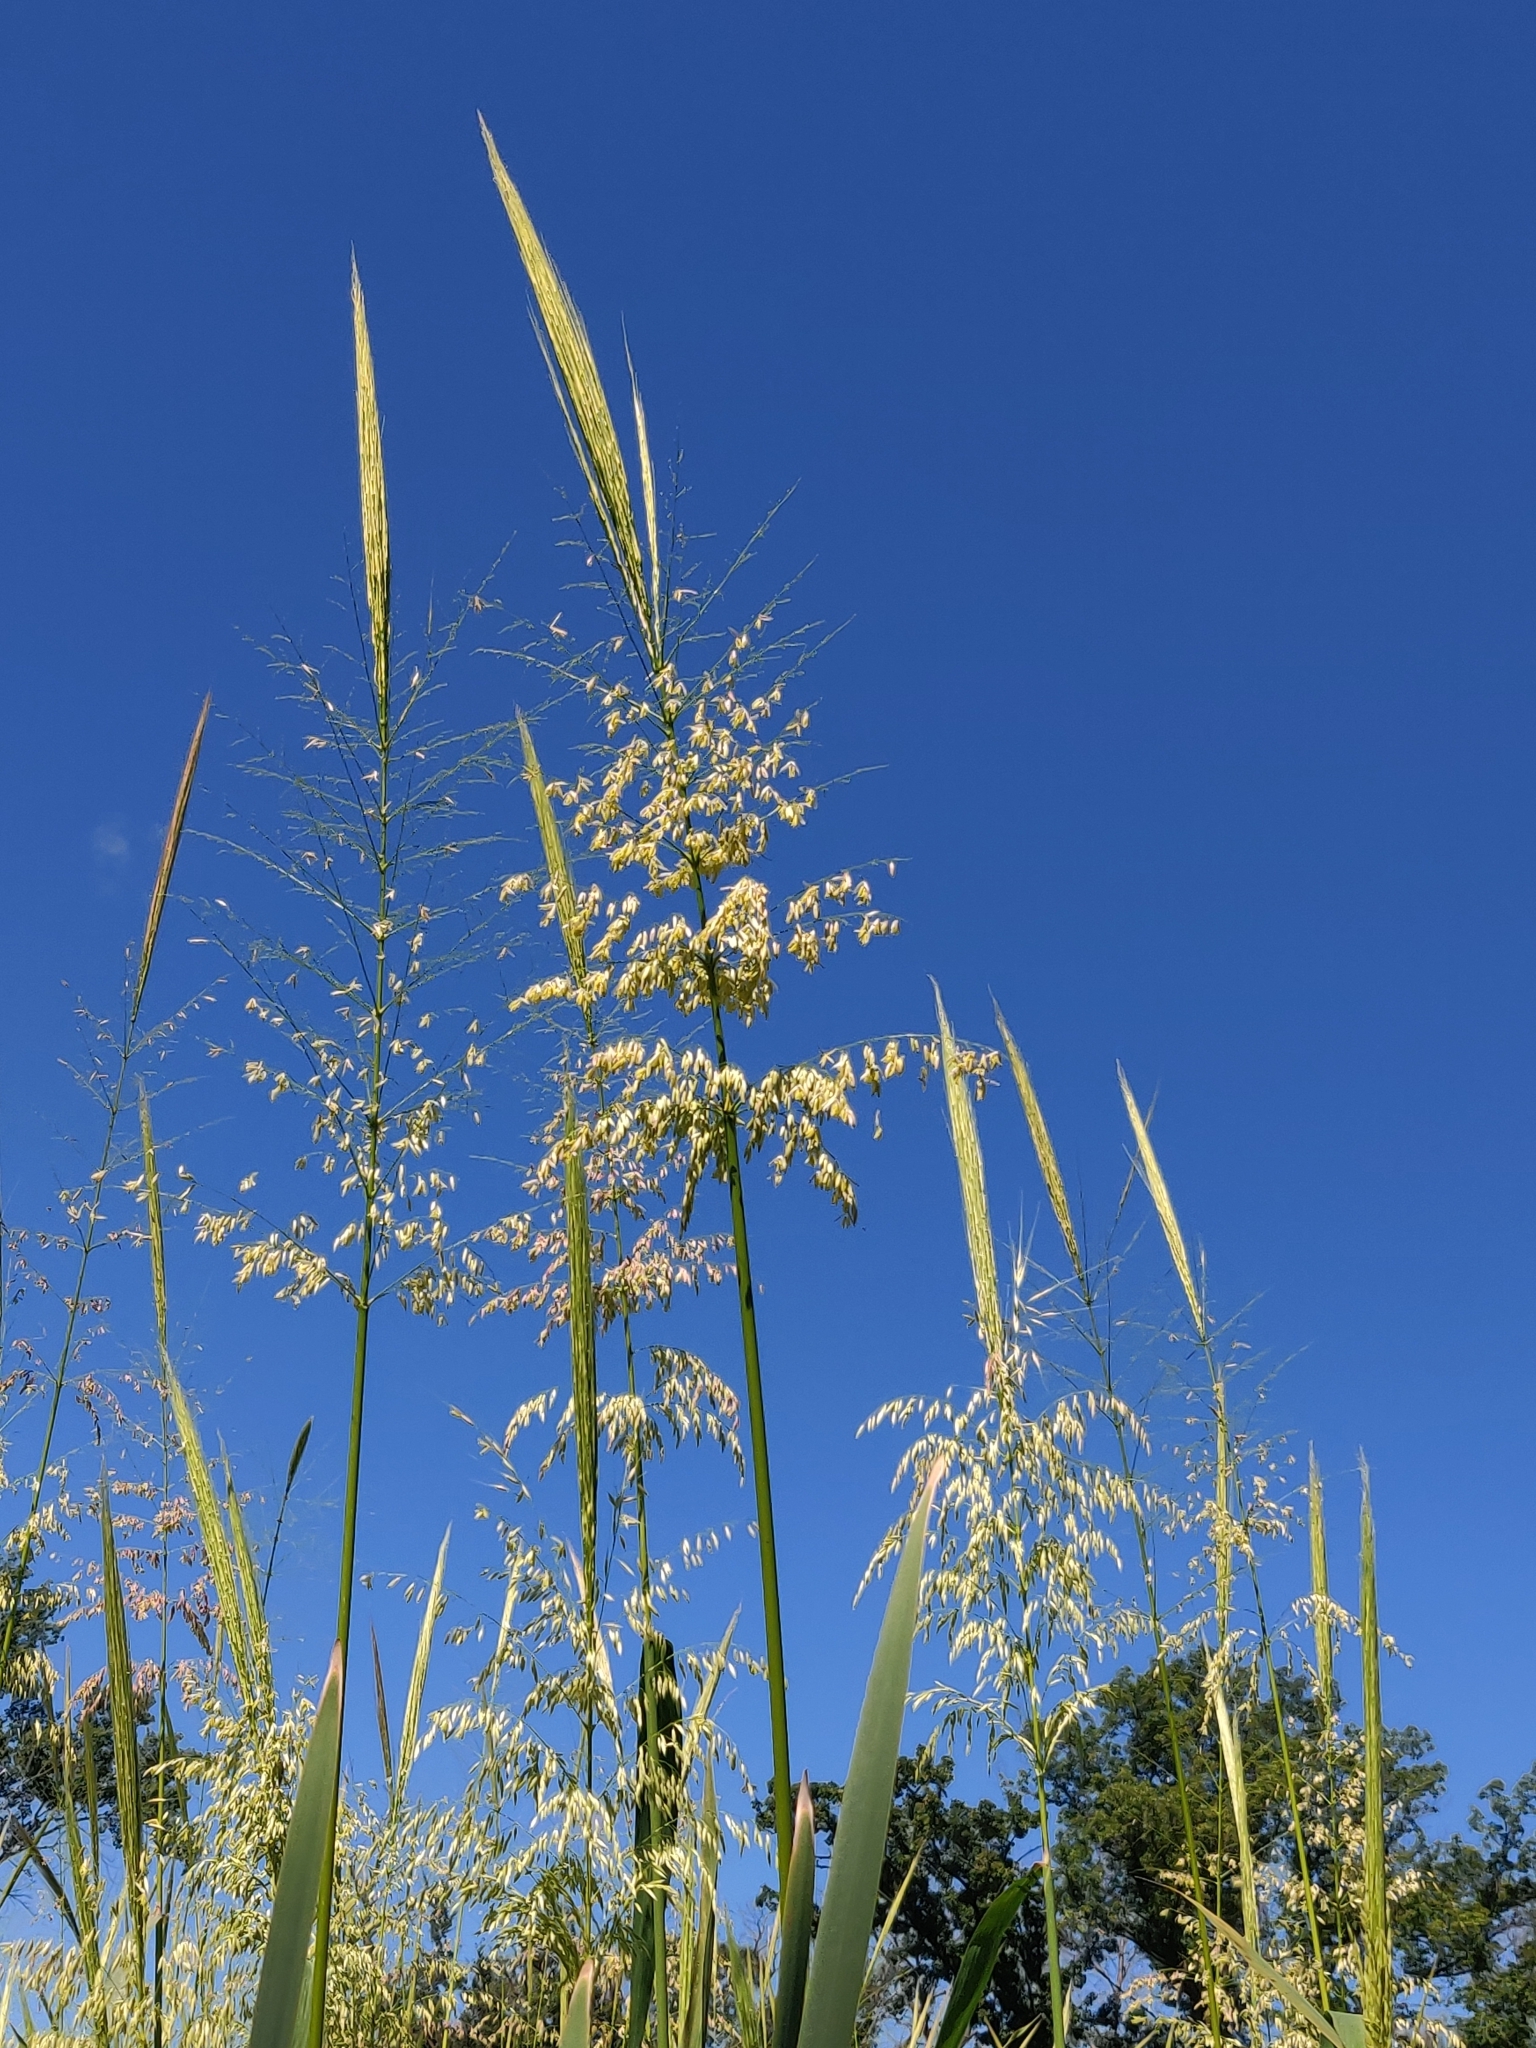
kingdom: Plantae
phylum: Tracheophyta
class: Liliopsida
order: Poales
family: Poaceae
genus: Zizania
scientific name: Zizania aquatica
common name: Annual wildrice
